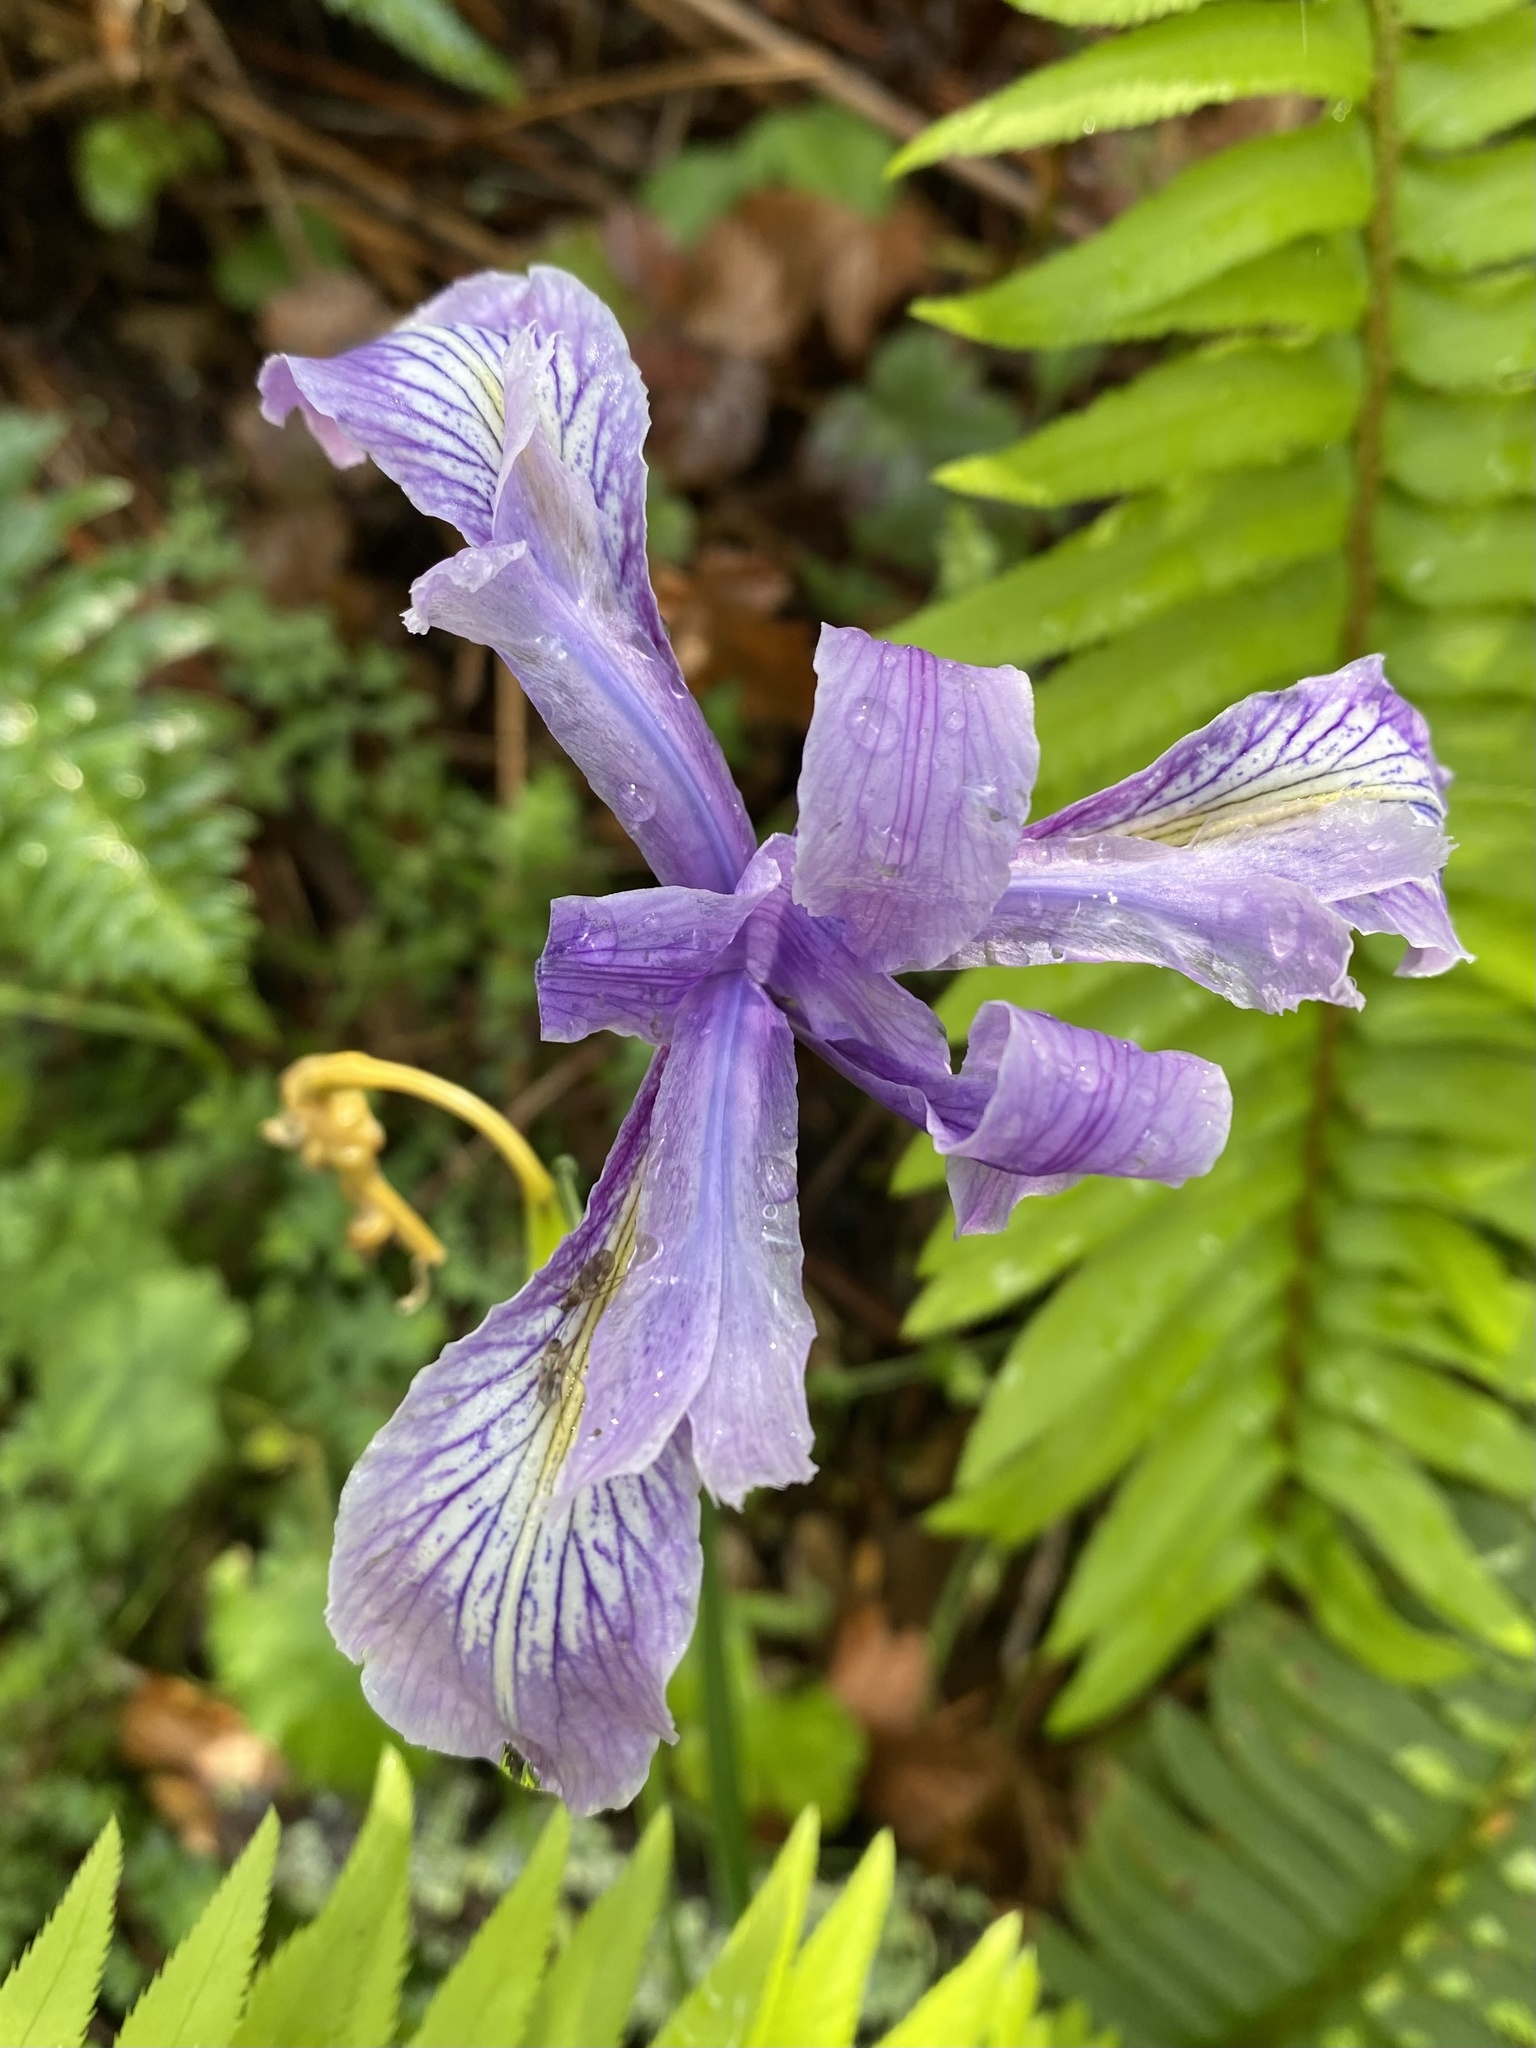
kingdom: Plantae
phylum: Tracheophyta
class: Liliopsida
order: Asparagales
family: Iridaceae
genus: Iris
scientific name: Iris douglasiana
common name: Marin iris
